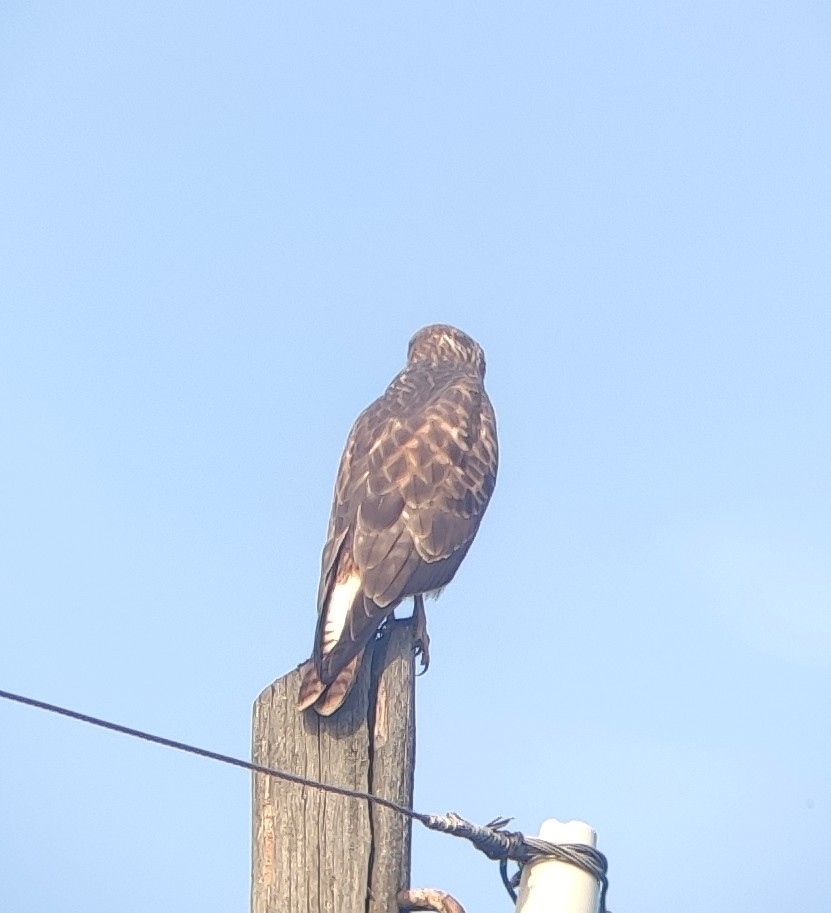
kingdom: Animalia
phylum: Chordata
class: Aves
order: Accipitriformes
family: Accipitridae
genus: Buteo
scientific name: Buteo buteo
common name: Common buzzard
